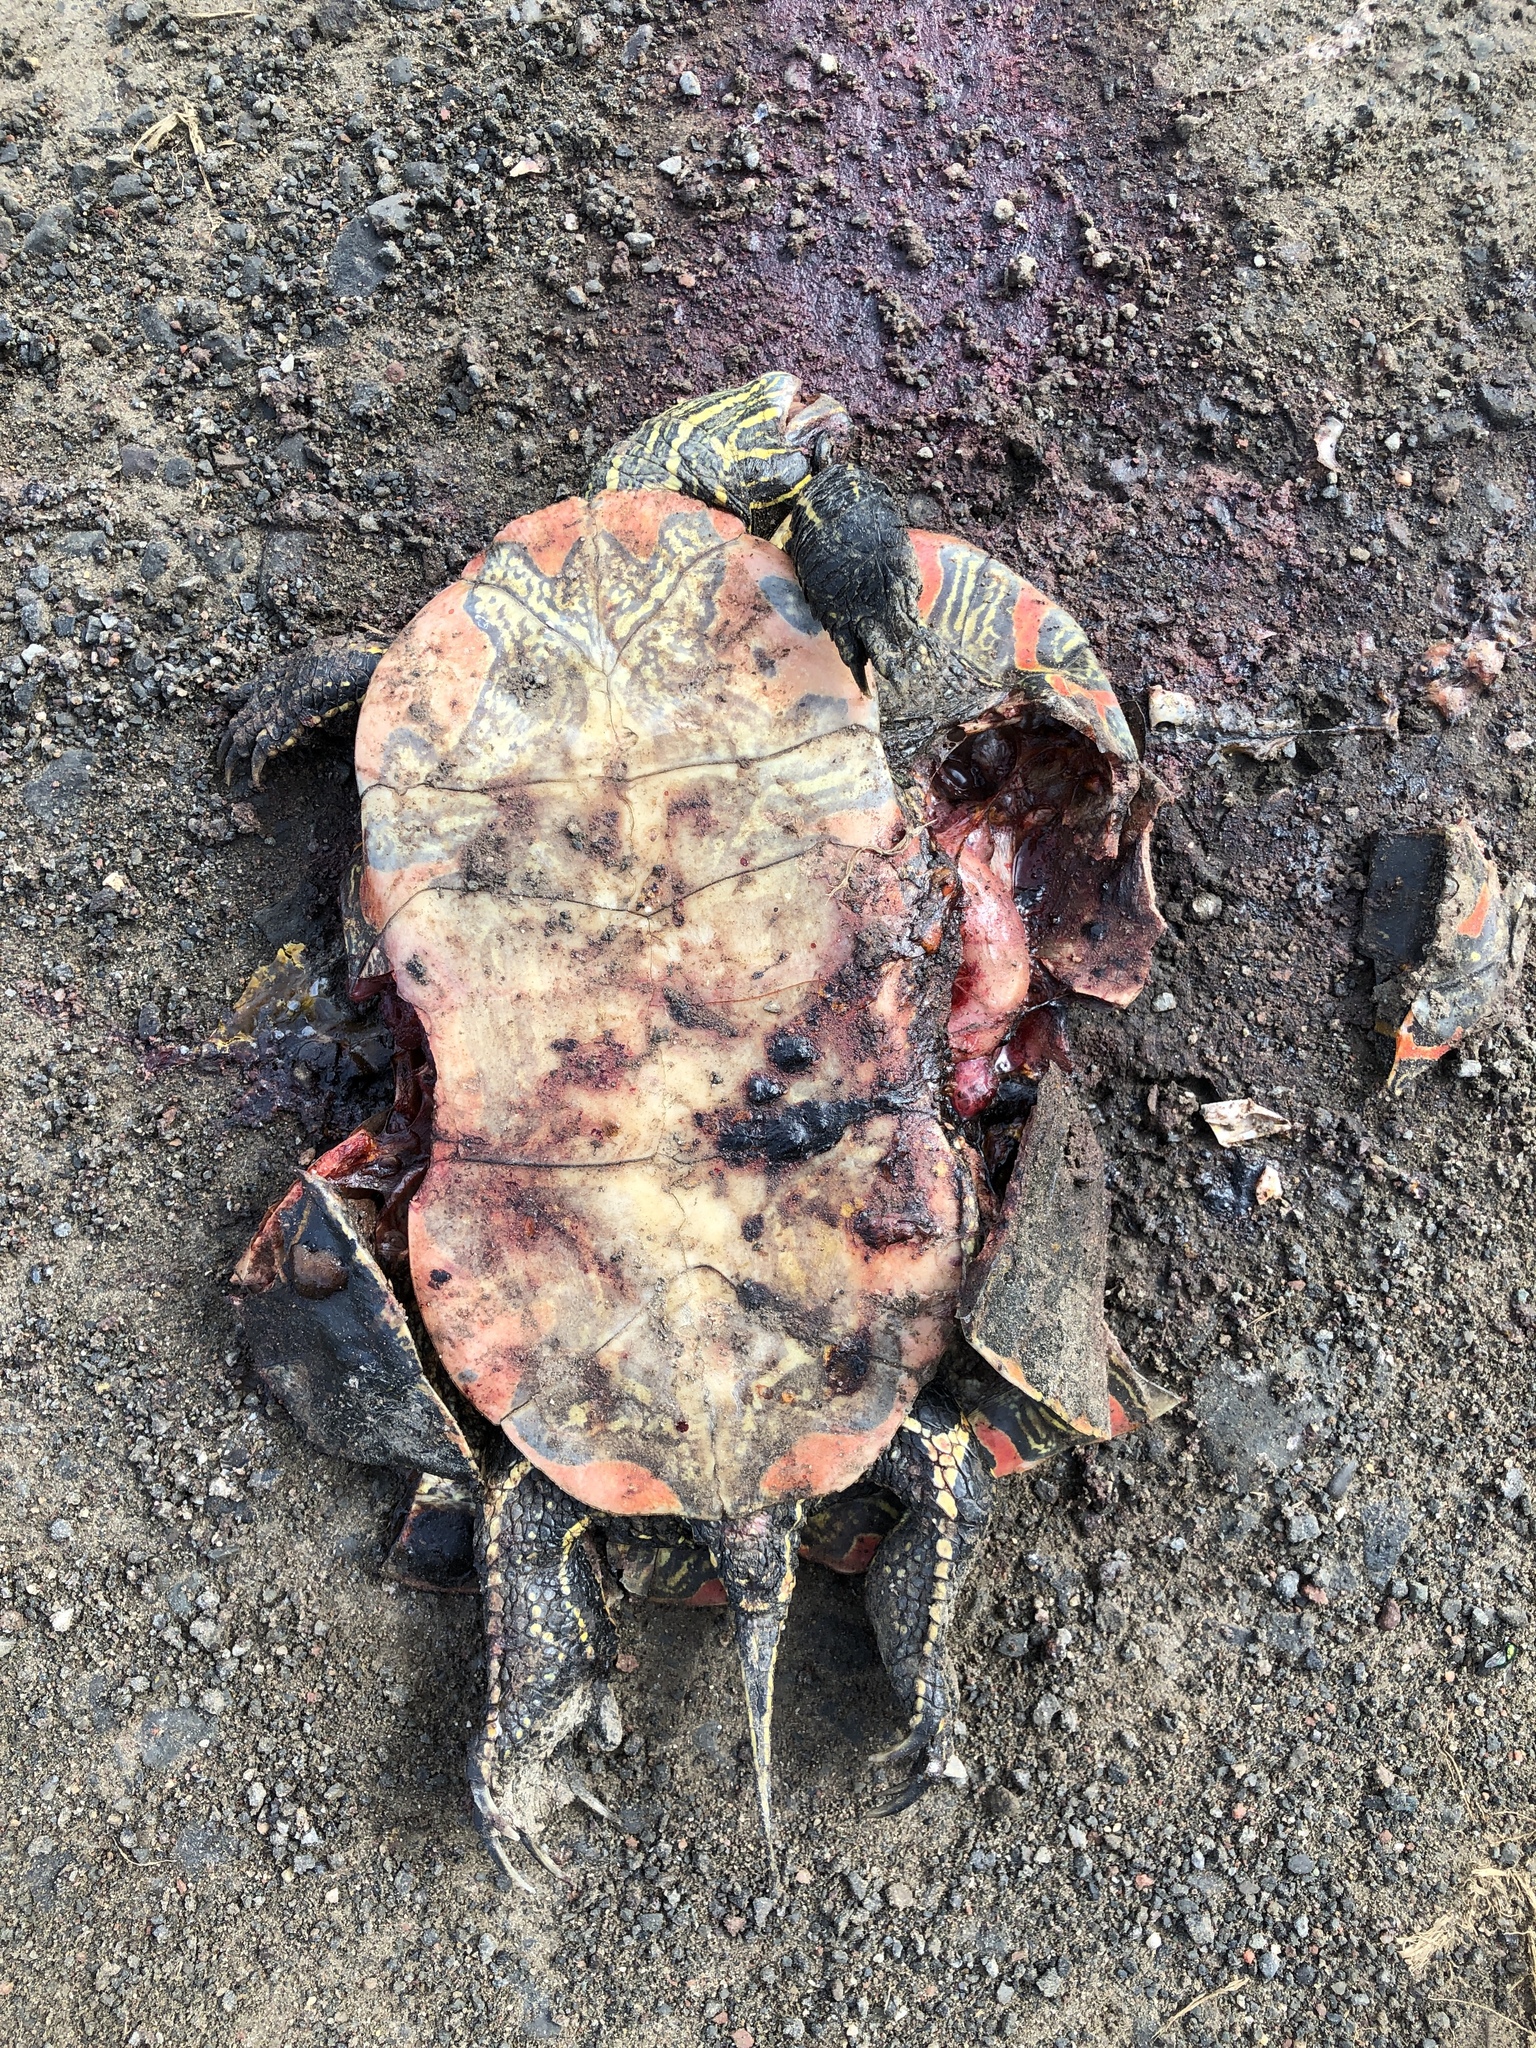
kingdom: Animalia
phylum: Chordata
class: Testudines
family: Emydidae
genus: Chrysemys
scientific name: Chrysemys picta
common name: Painted turtle
